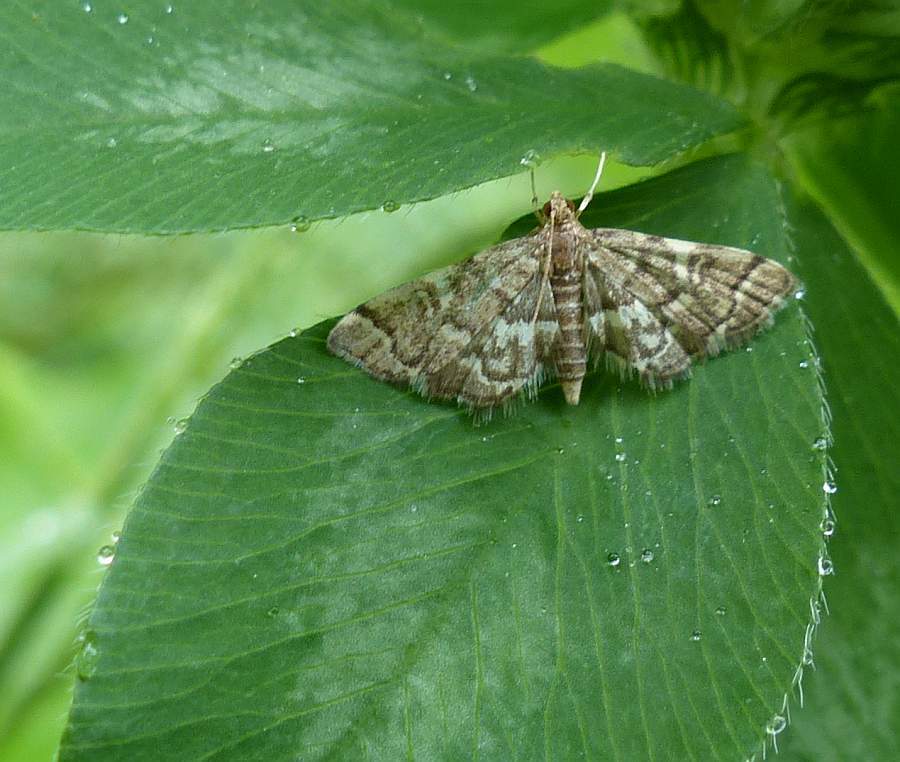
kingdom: Animalia
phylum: Arthropoda
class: Insecta
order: Lepidoptera
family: Crambidae
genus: Anageshna
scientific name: Anageshna primordialis
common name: Yellow-spotted webworm moth
